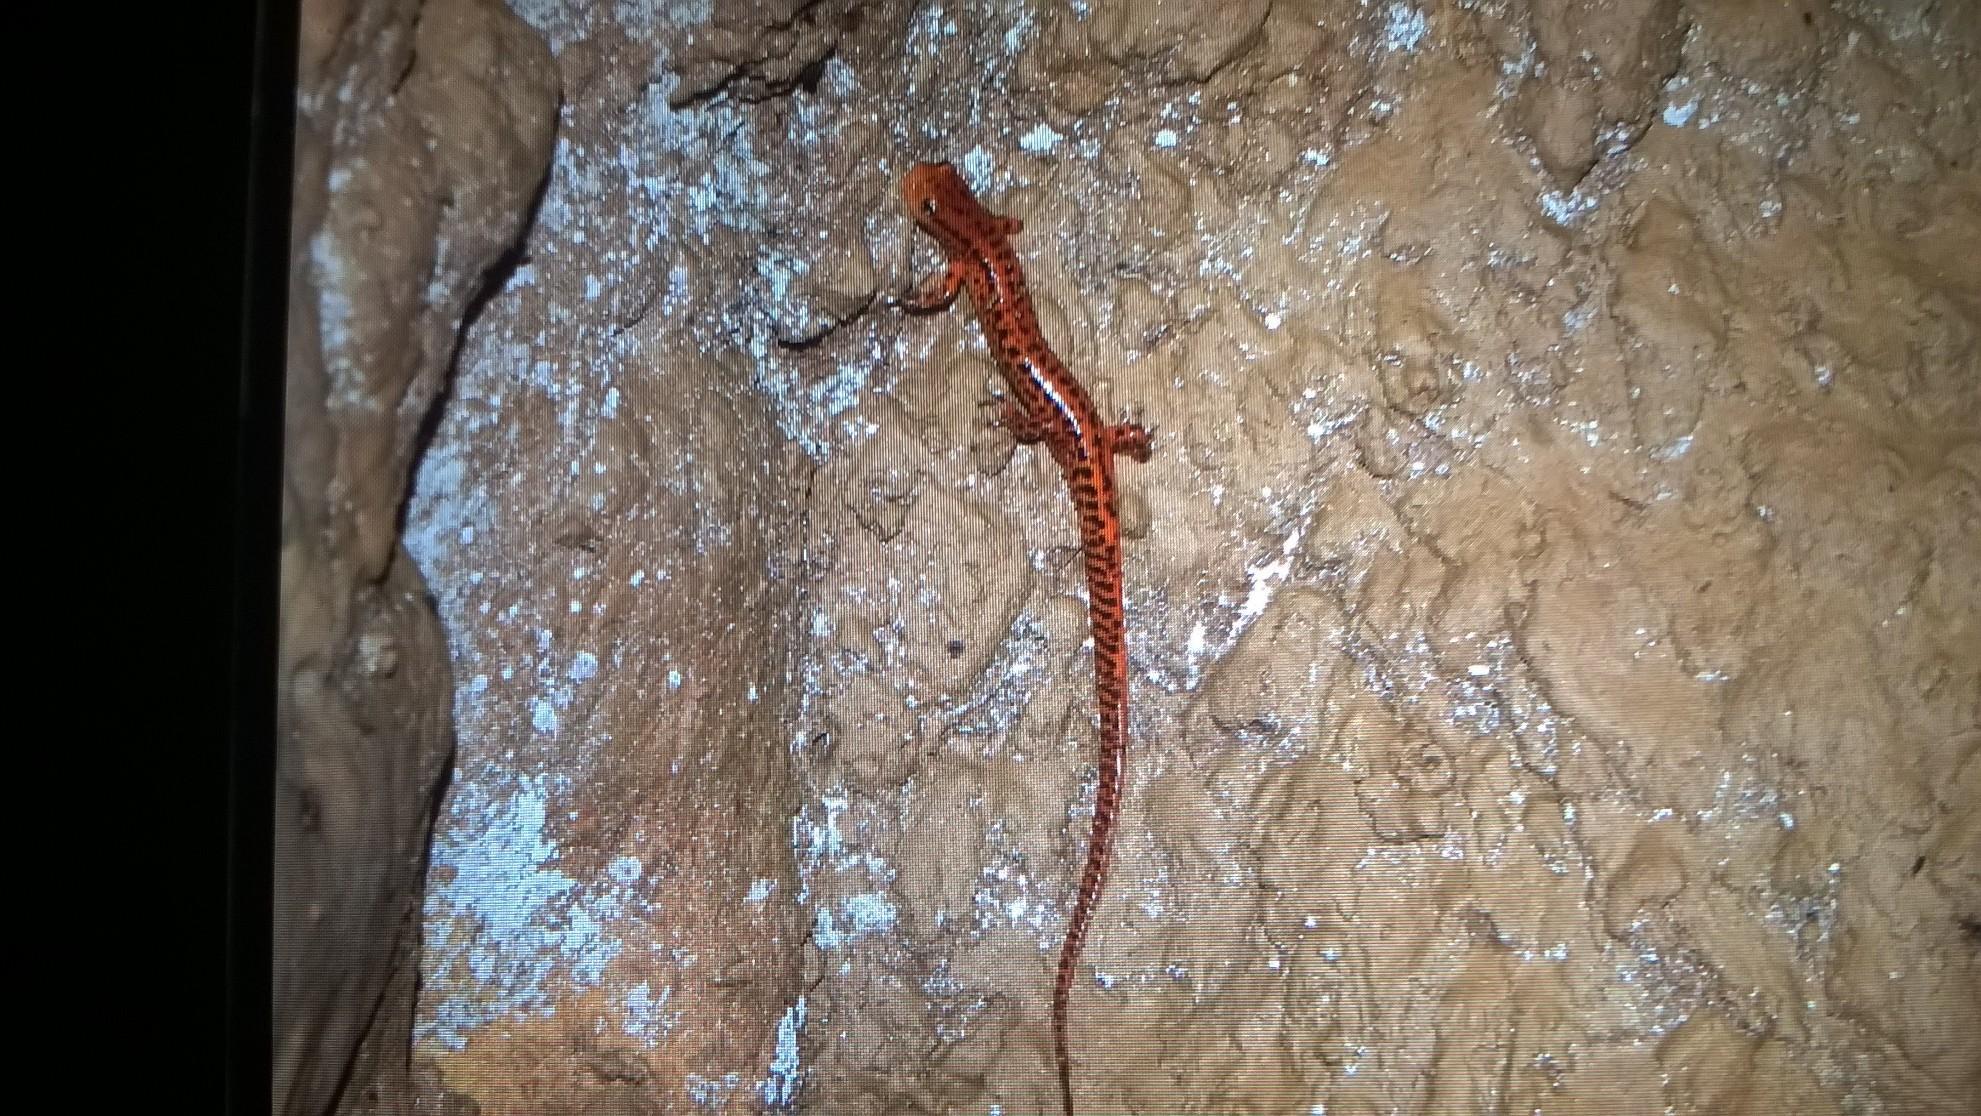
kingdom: Animalia
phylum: Chordata
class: Amphibia
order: Caudata
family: Plethodontidae
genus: Eurycea
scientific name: Eurycea longicauda
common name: Long-tailed salamander
